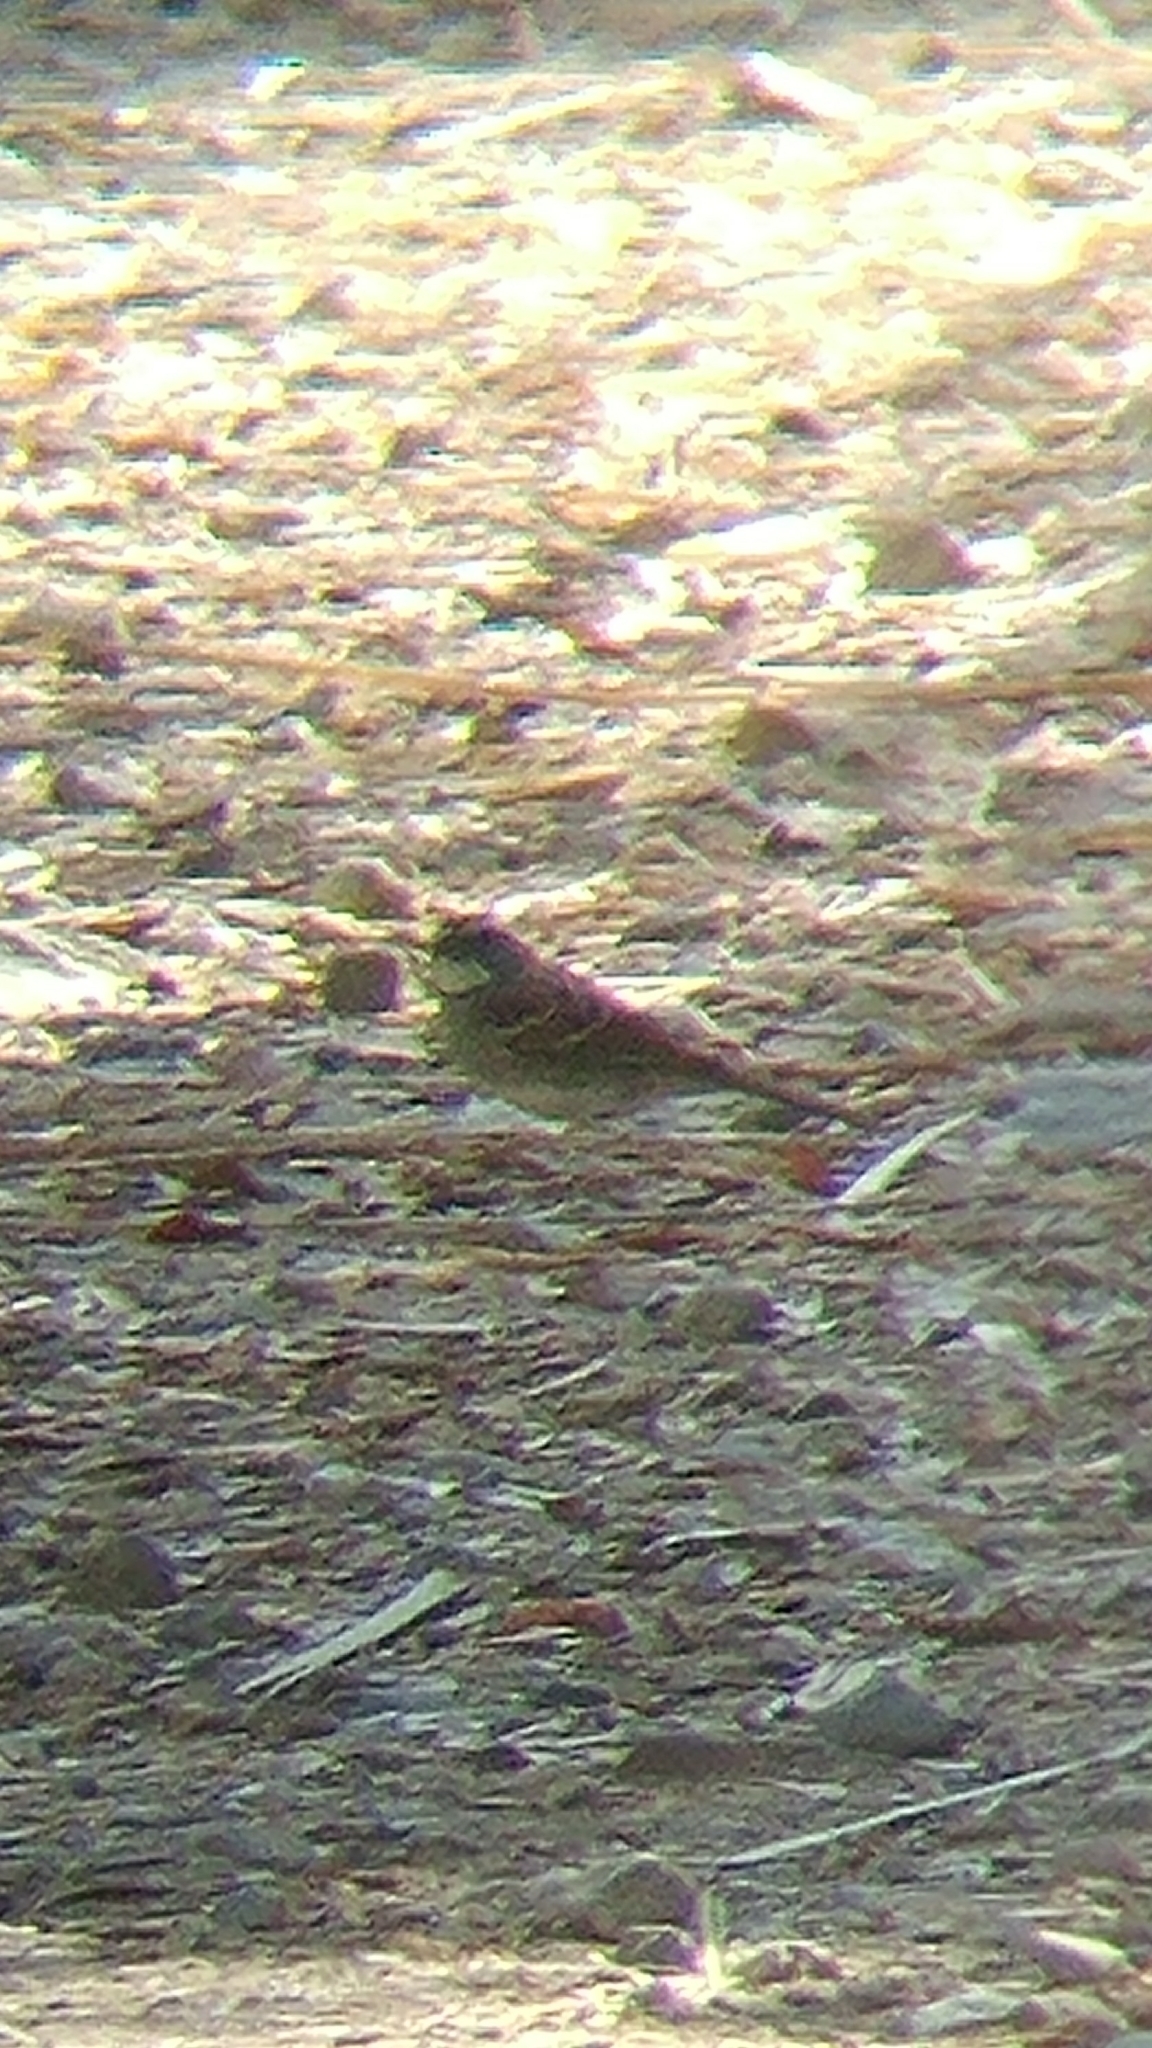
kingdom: Animalia
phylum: Chordata
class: Aves
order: Passeriformes
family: Passerellidae
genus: Zonotrichia
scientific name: Zonotrichia albicollis
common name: White-throated sparrow
